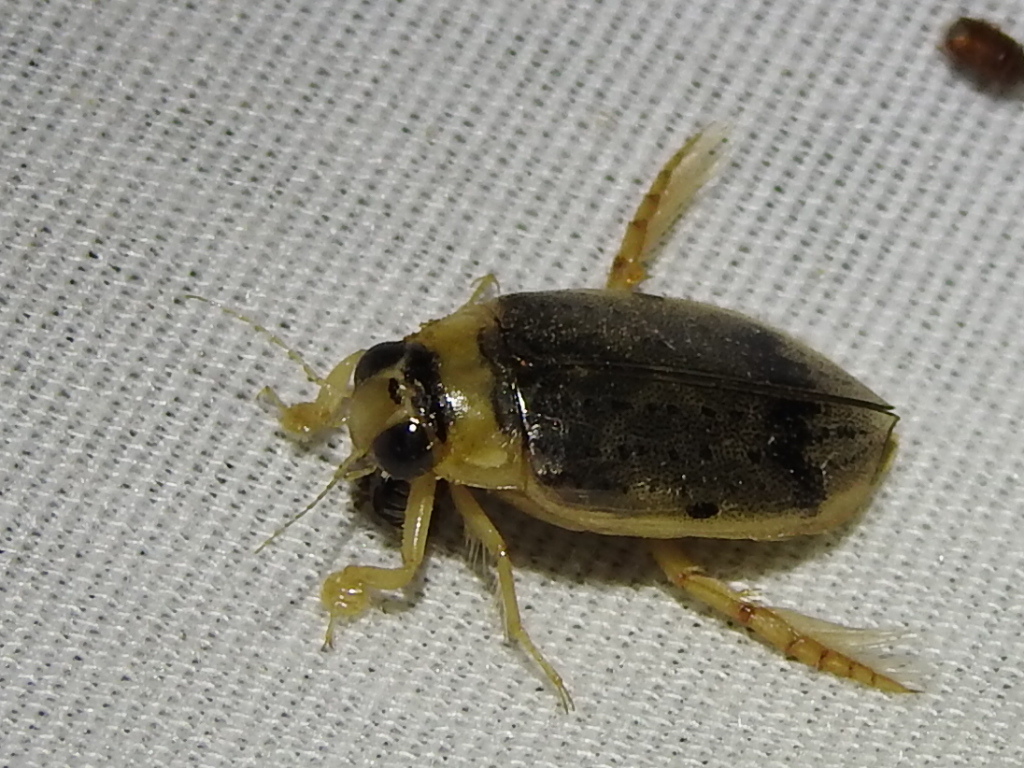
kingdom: Animalia
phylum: Arthropoda
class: Insecta
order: Coleoptera
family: Dytiscidae
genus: Eretes
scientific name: Eretes
